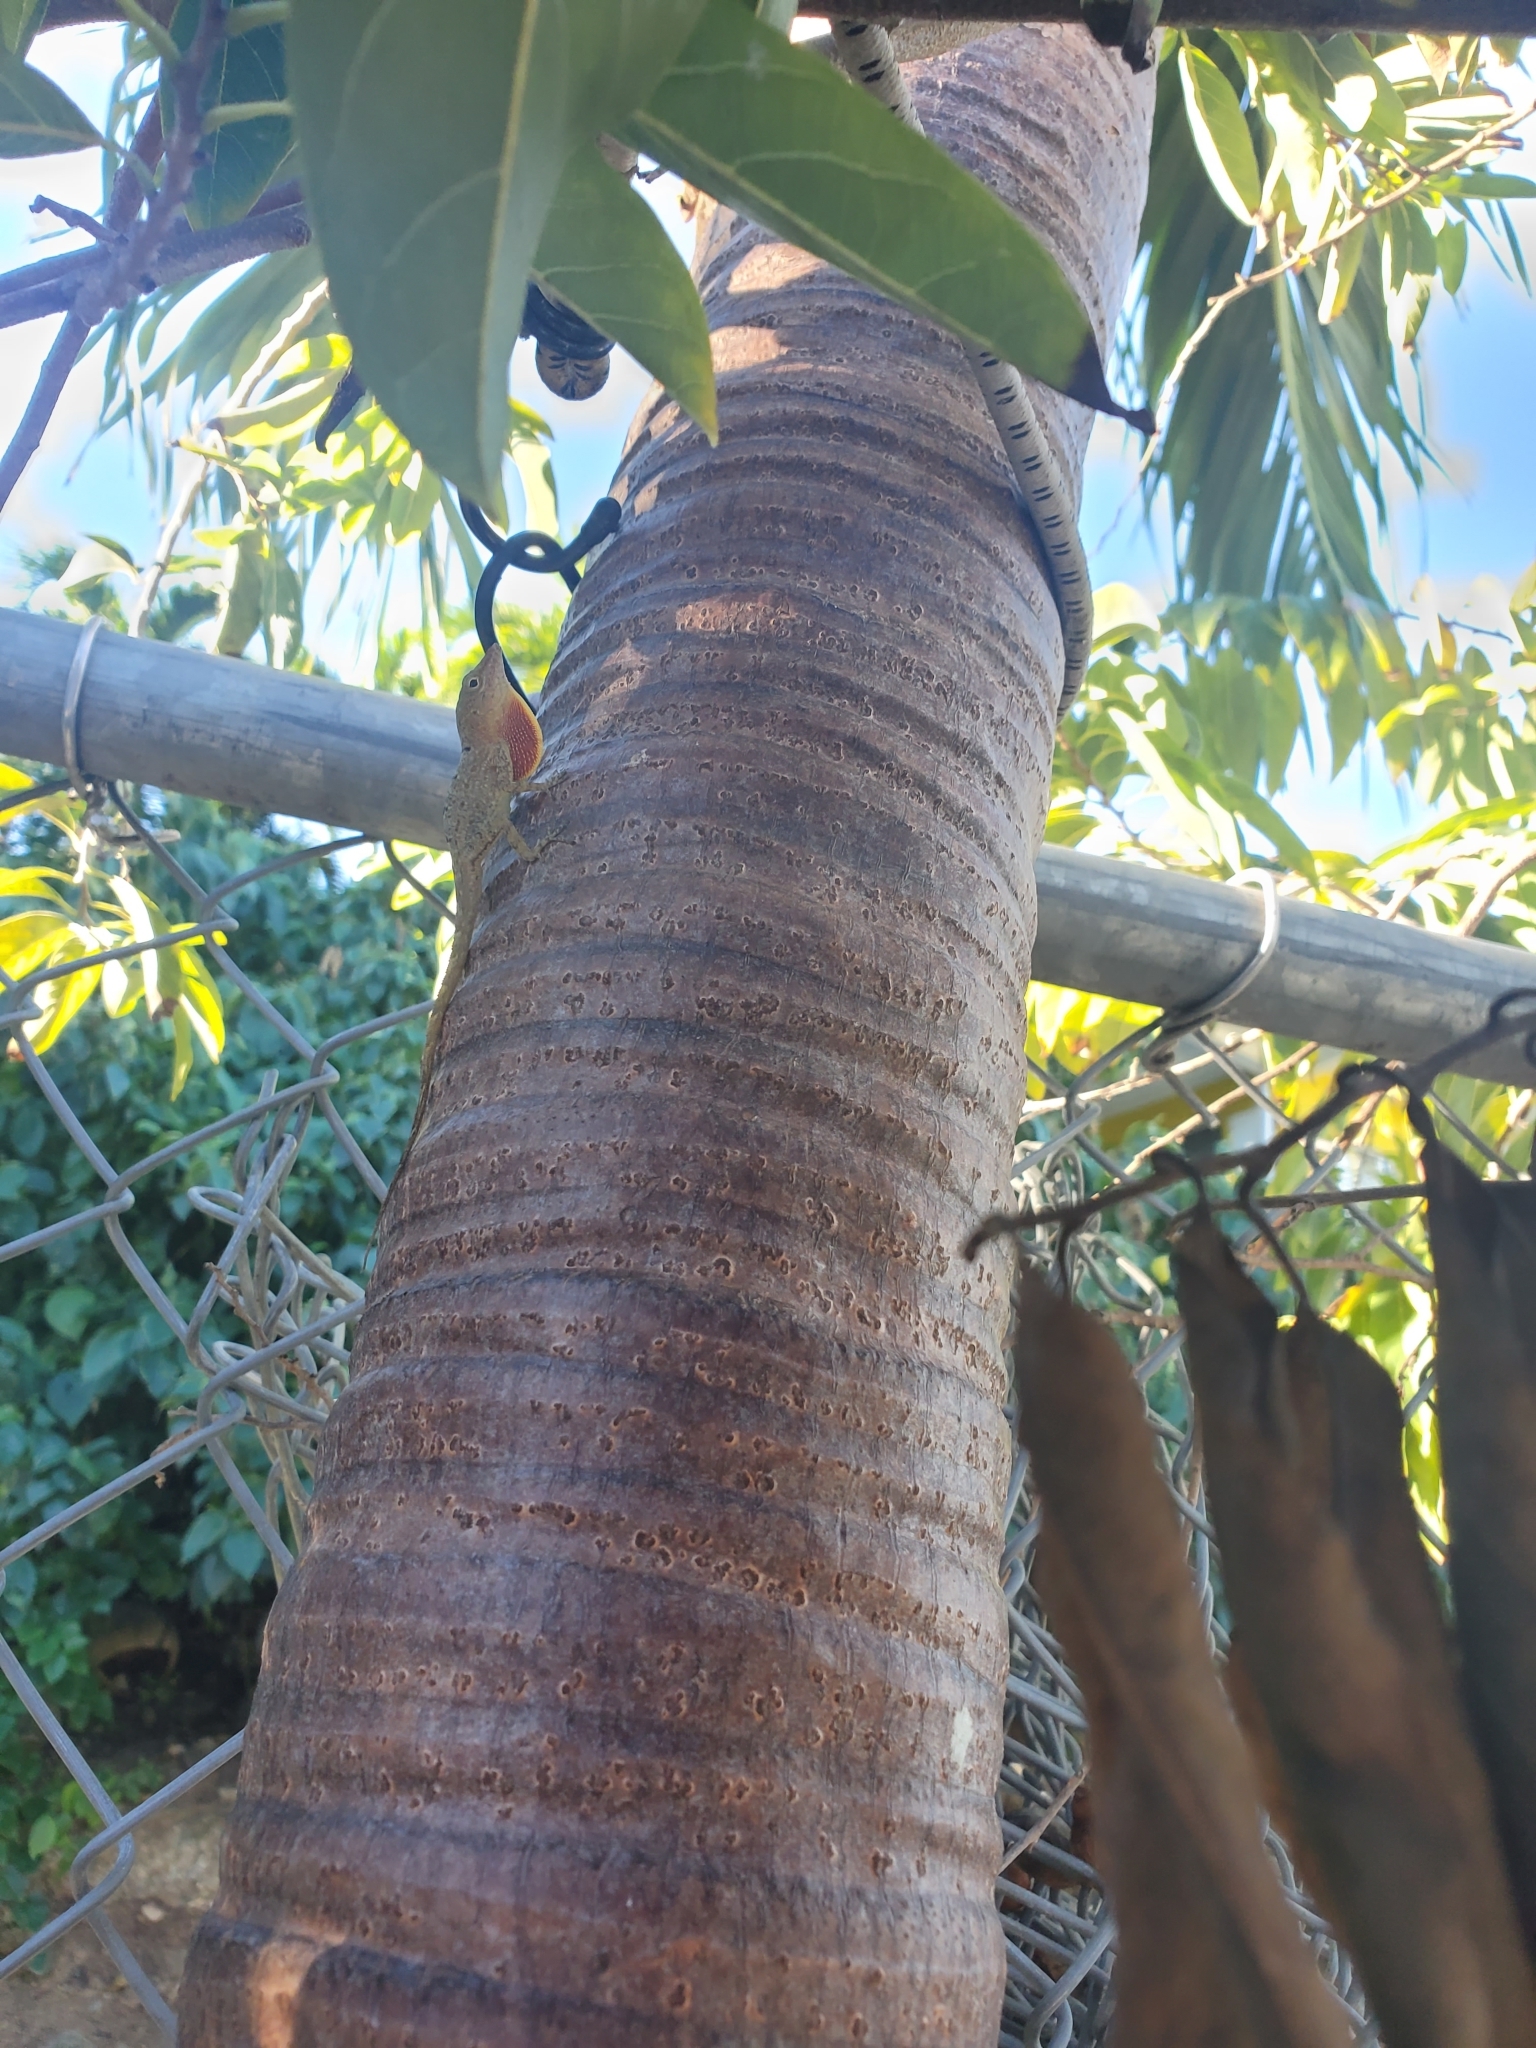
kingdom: Animalia
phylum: Chordata
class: Squamata
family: Dactyloidae
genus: Anolis
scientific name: Anolis stratulus
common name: Banded anole
